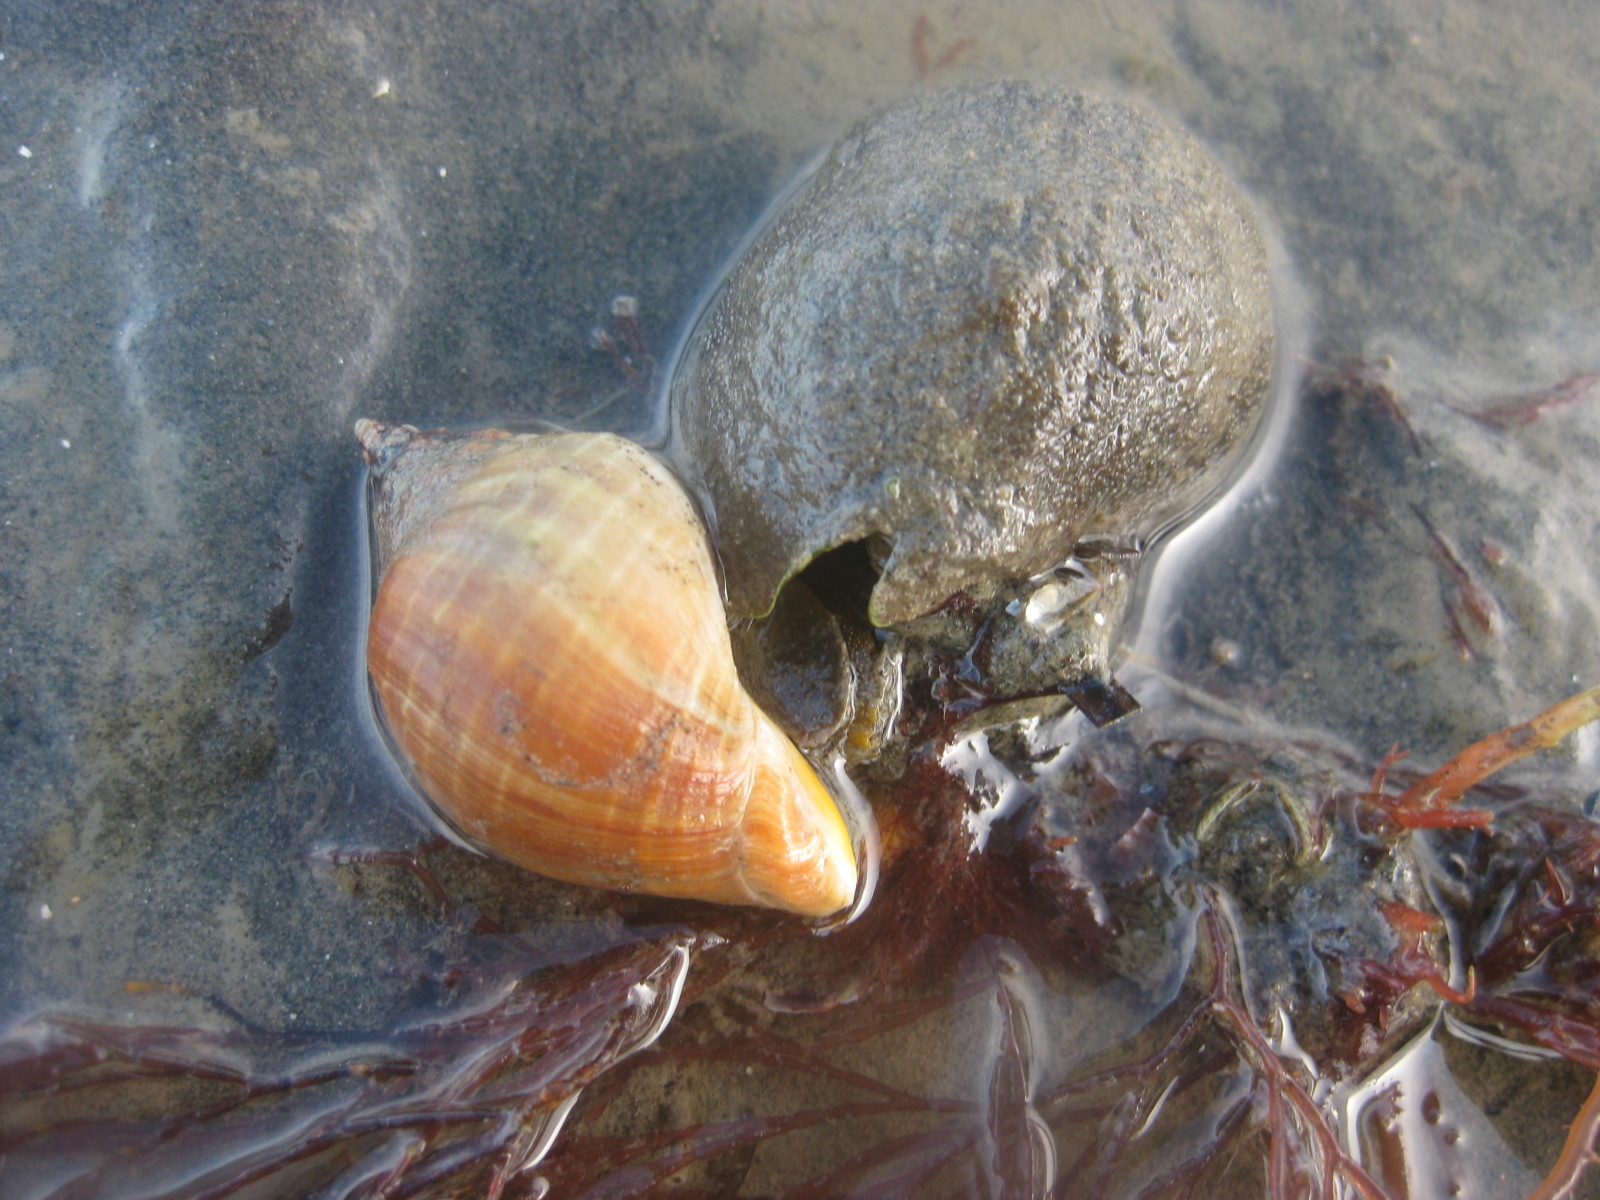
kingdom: Animalia
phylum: Mollusca
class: Gastropoda
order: Neogastropoda
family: Cominellidae
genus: Cominella
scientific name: Cominella adspersa
